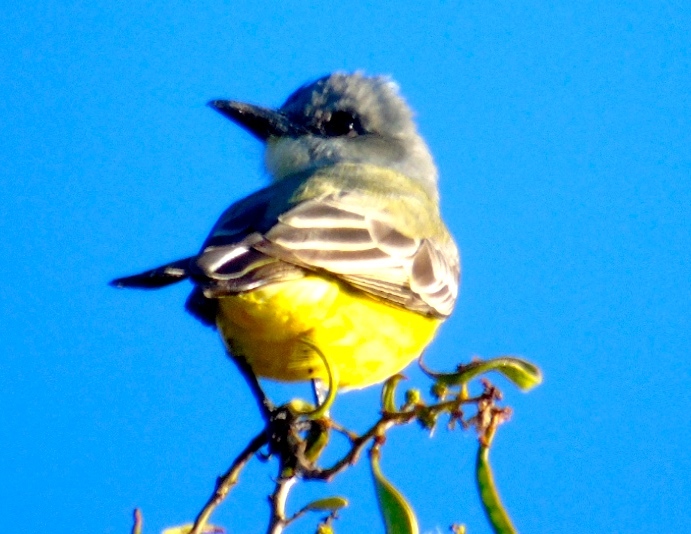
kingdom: Animalia
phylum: Chordata
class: Aves
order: Passeriformes
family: Tyrannidae
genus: Tyrannus
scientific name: Tyrannus melancholicus
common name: Tropical kingbird
